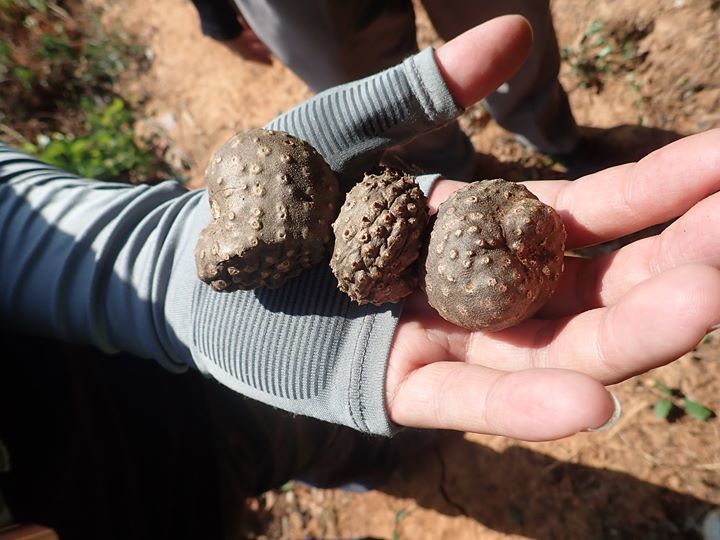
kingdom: Plantae
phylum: Tracheophyta
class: Liliopsida
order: Dioscoreales
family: Dioscoreaceae
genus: Dioscorea
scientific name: Dioscorea bulbifera
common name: Air yam
